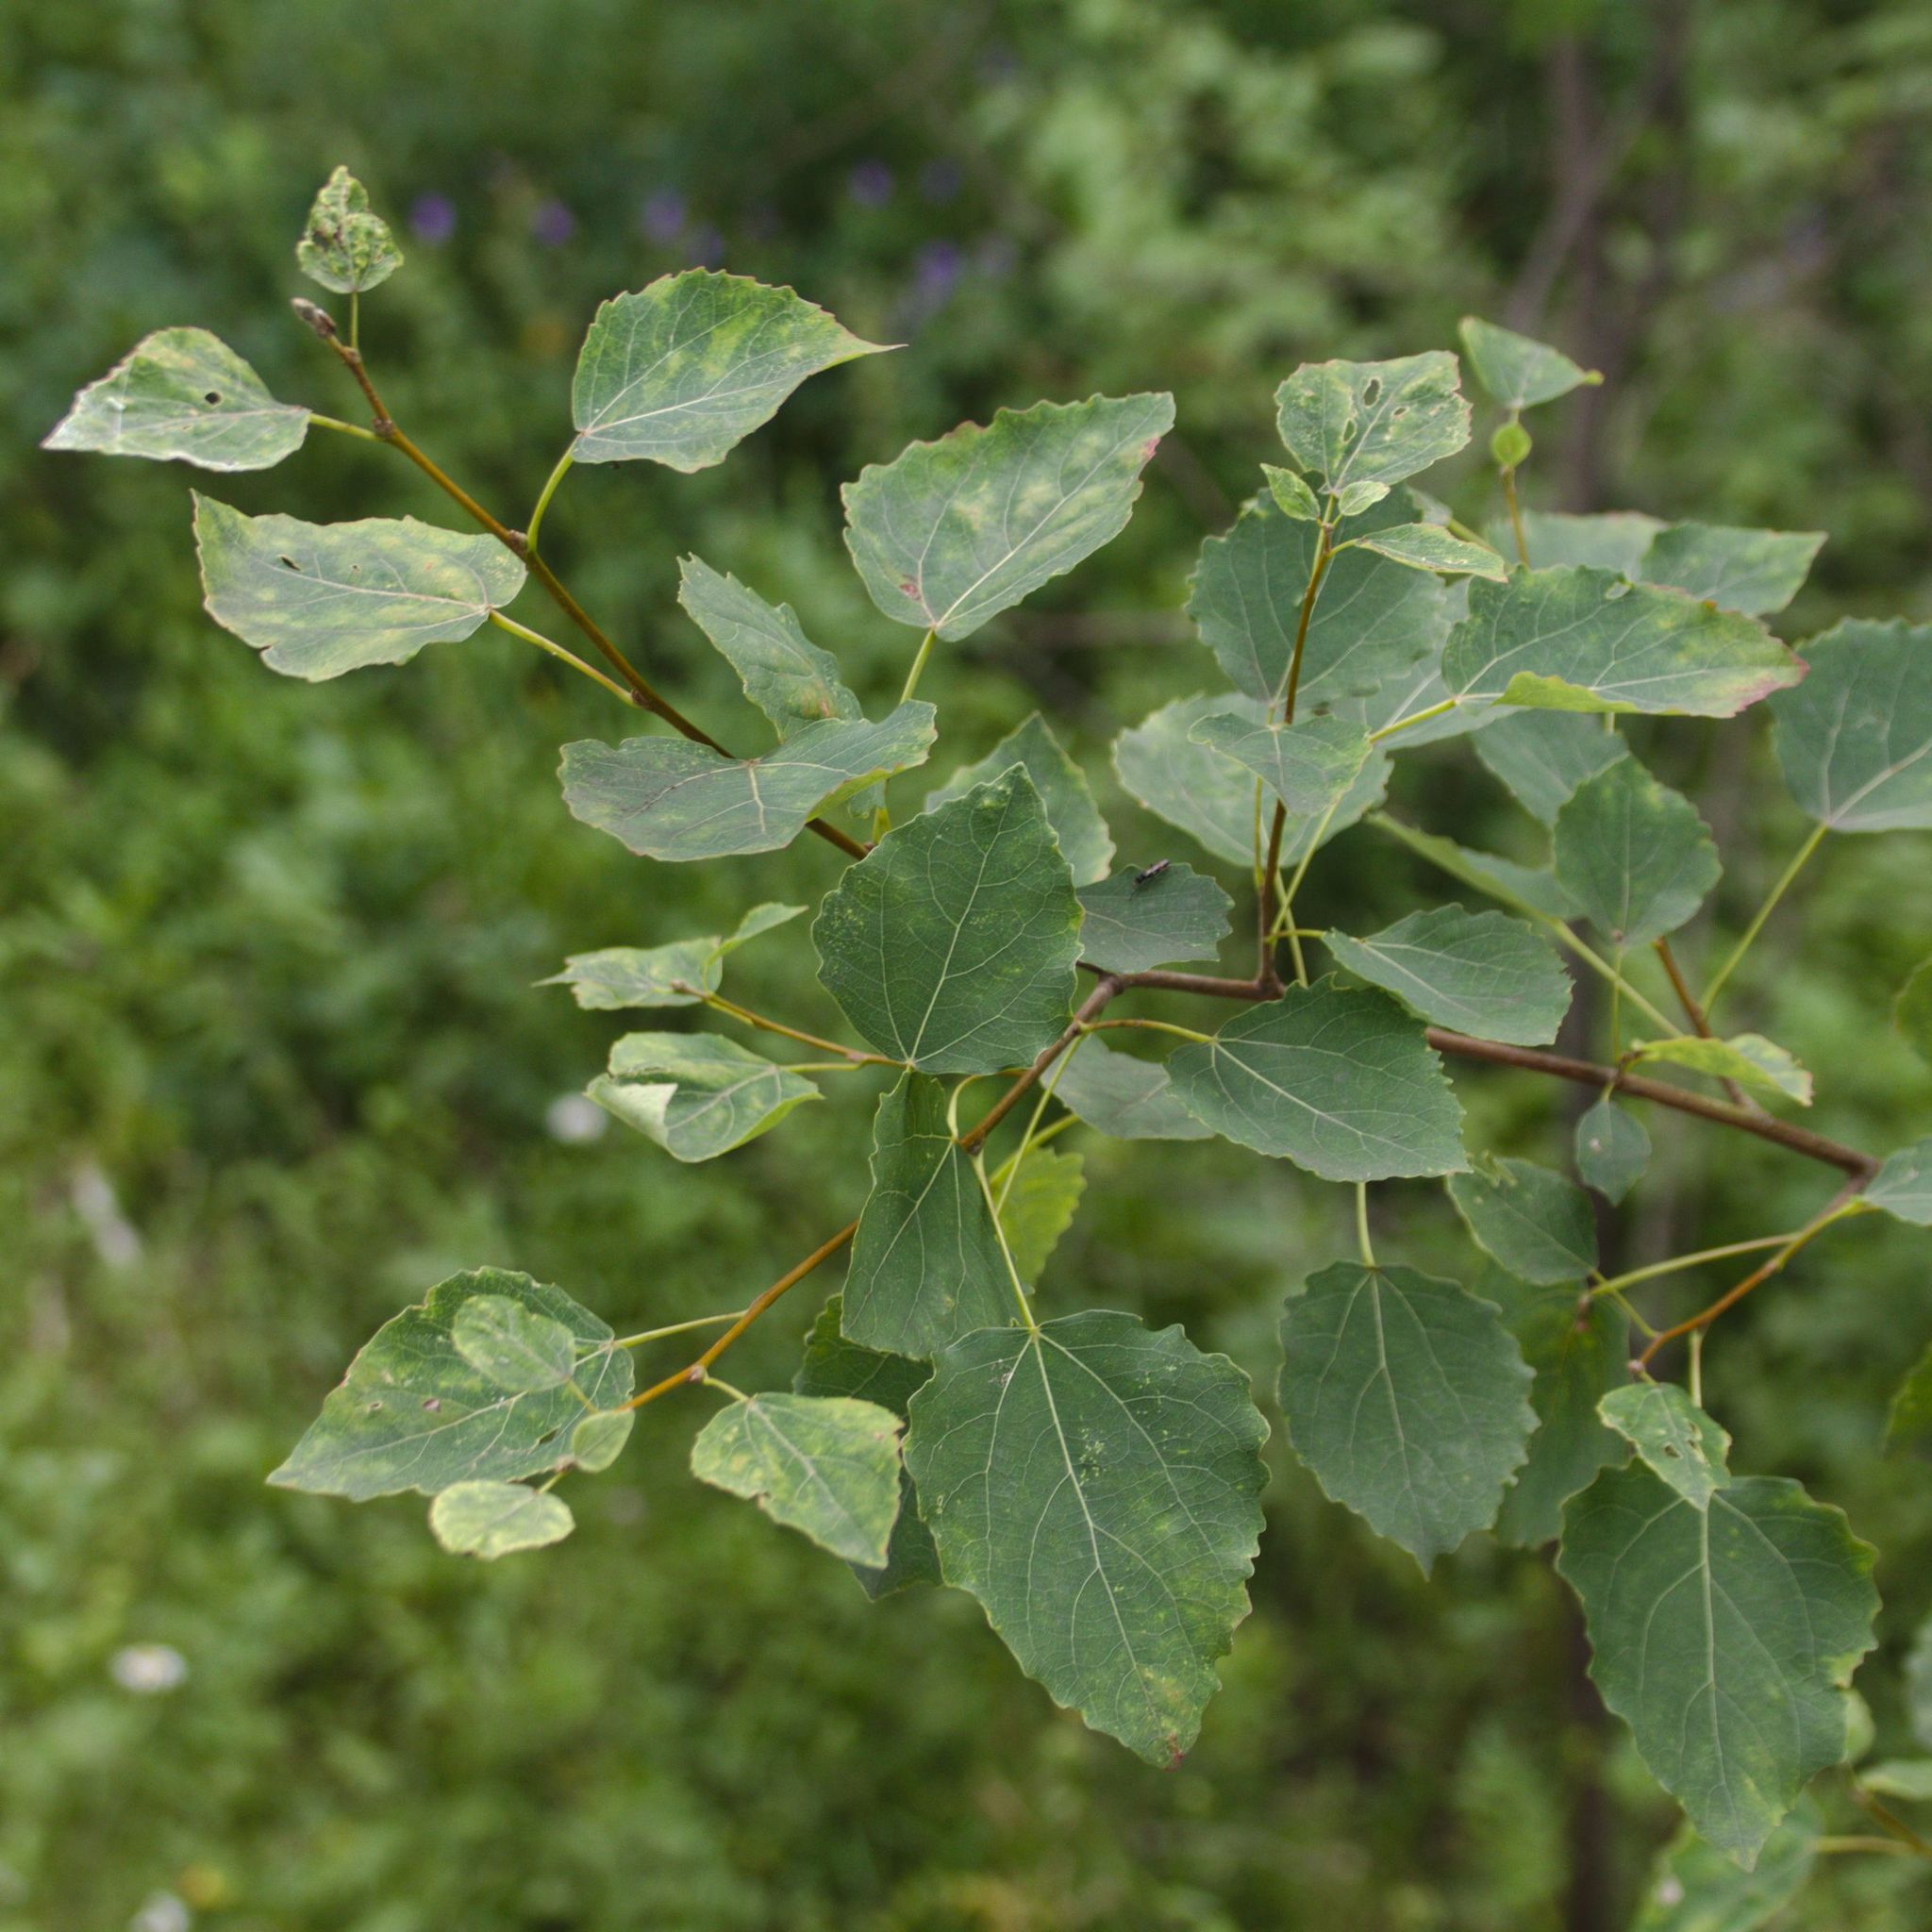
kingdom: Plantae
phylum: Tracheophyta
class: Magnoliopsida
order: Malpighiales
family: Salicaceae
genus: Populus
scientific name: Populus tremula
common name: European aspen
